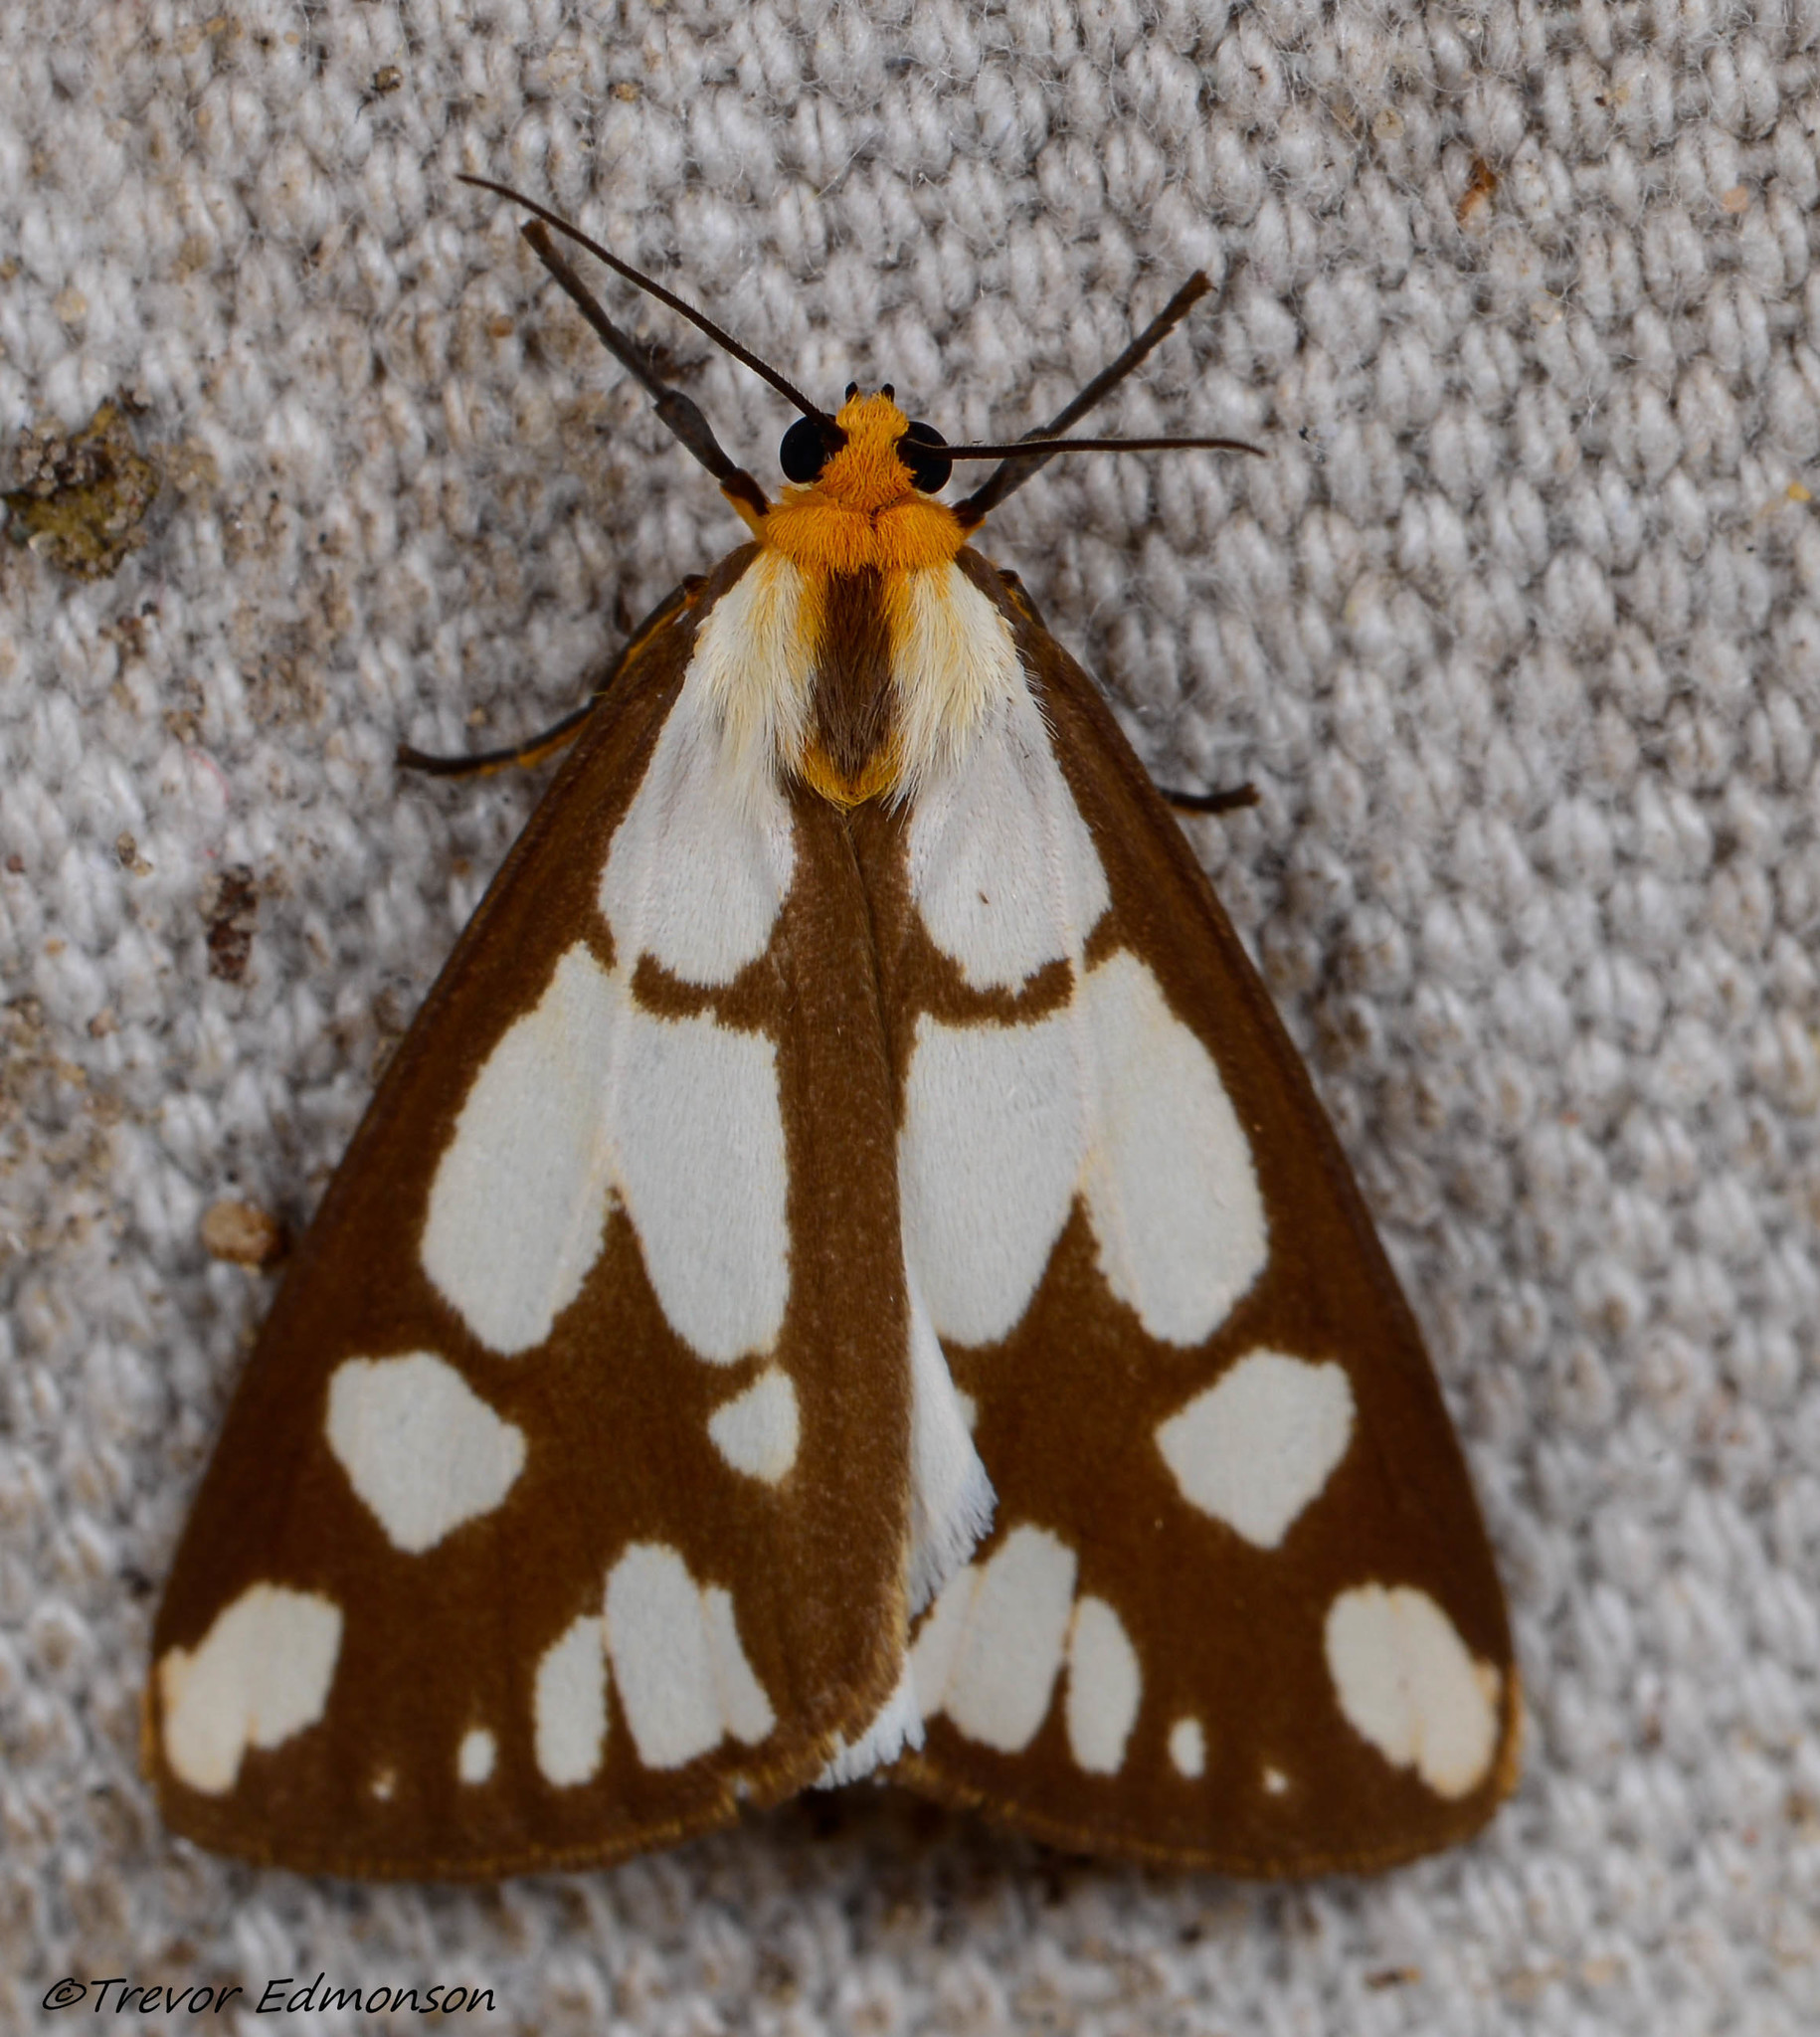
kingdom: Animalia
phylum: Arthropoda
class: Insecta
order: Lepidoptera
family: Erebidae
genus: Haploa
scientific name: Haploa confusa
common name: Confused haploa moth
